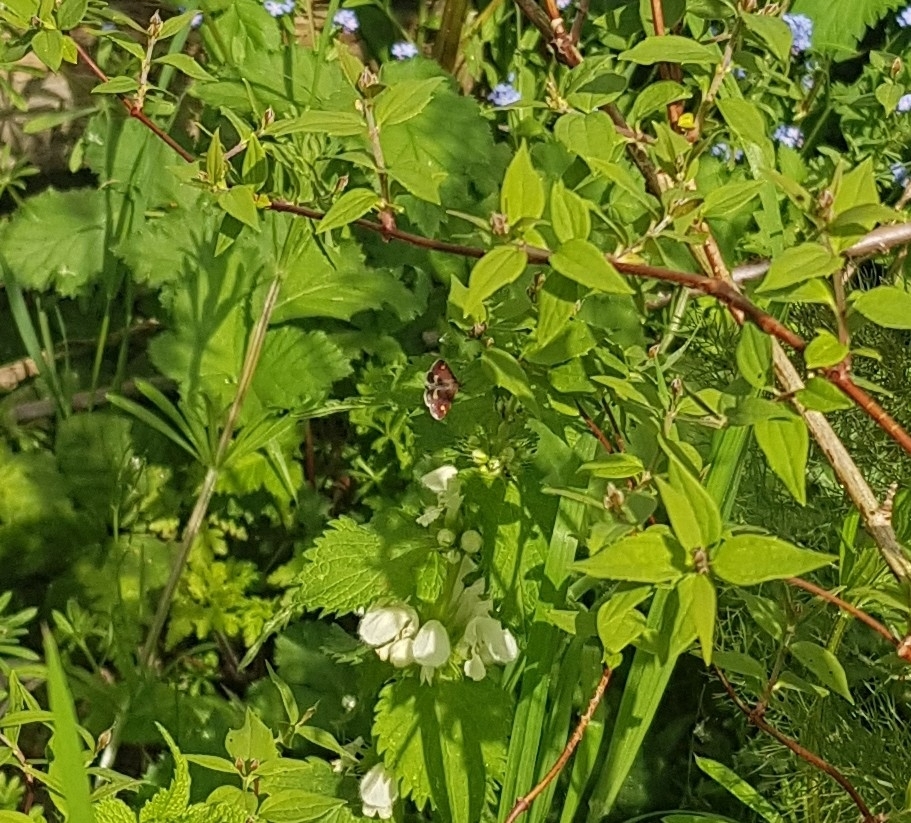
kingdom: Animalia
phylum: Arthropoda
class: Insecta
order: Lepidoptera
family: Crambidae
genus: Pyrausta
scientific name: Pyrausta aurata
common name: Small purple & gold
